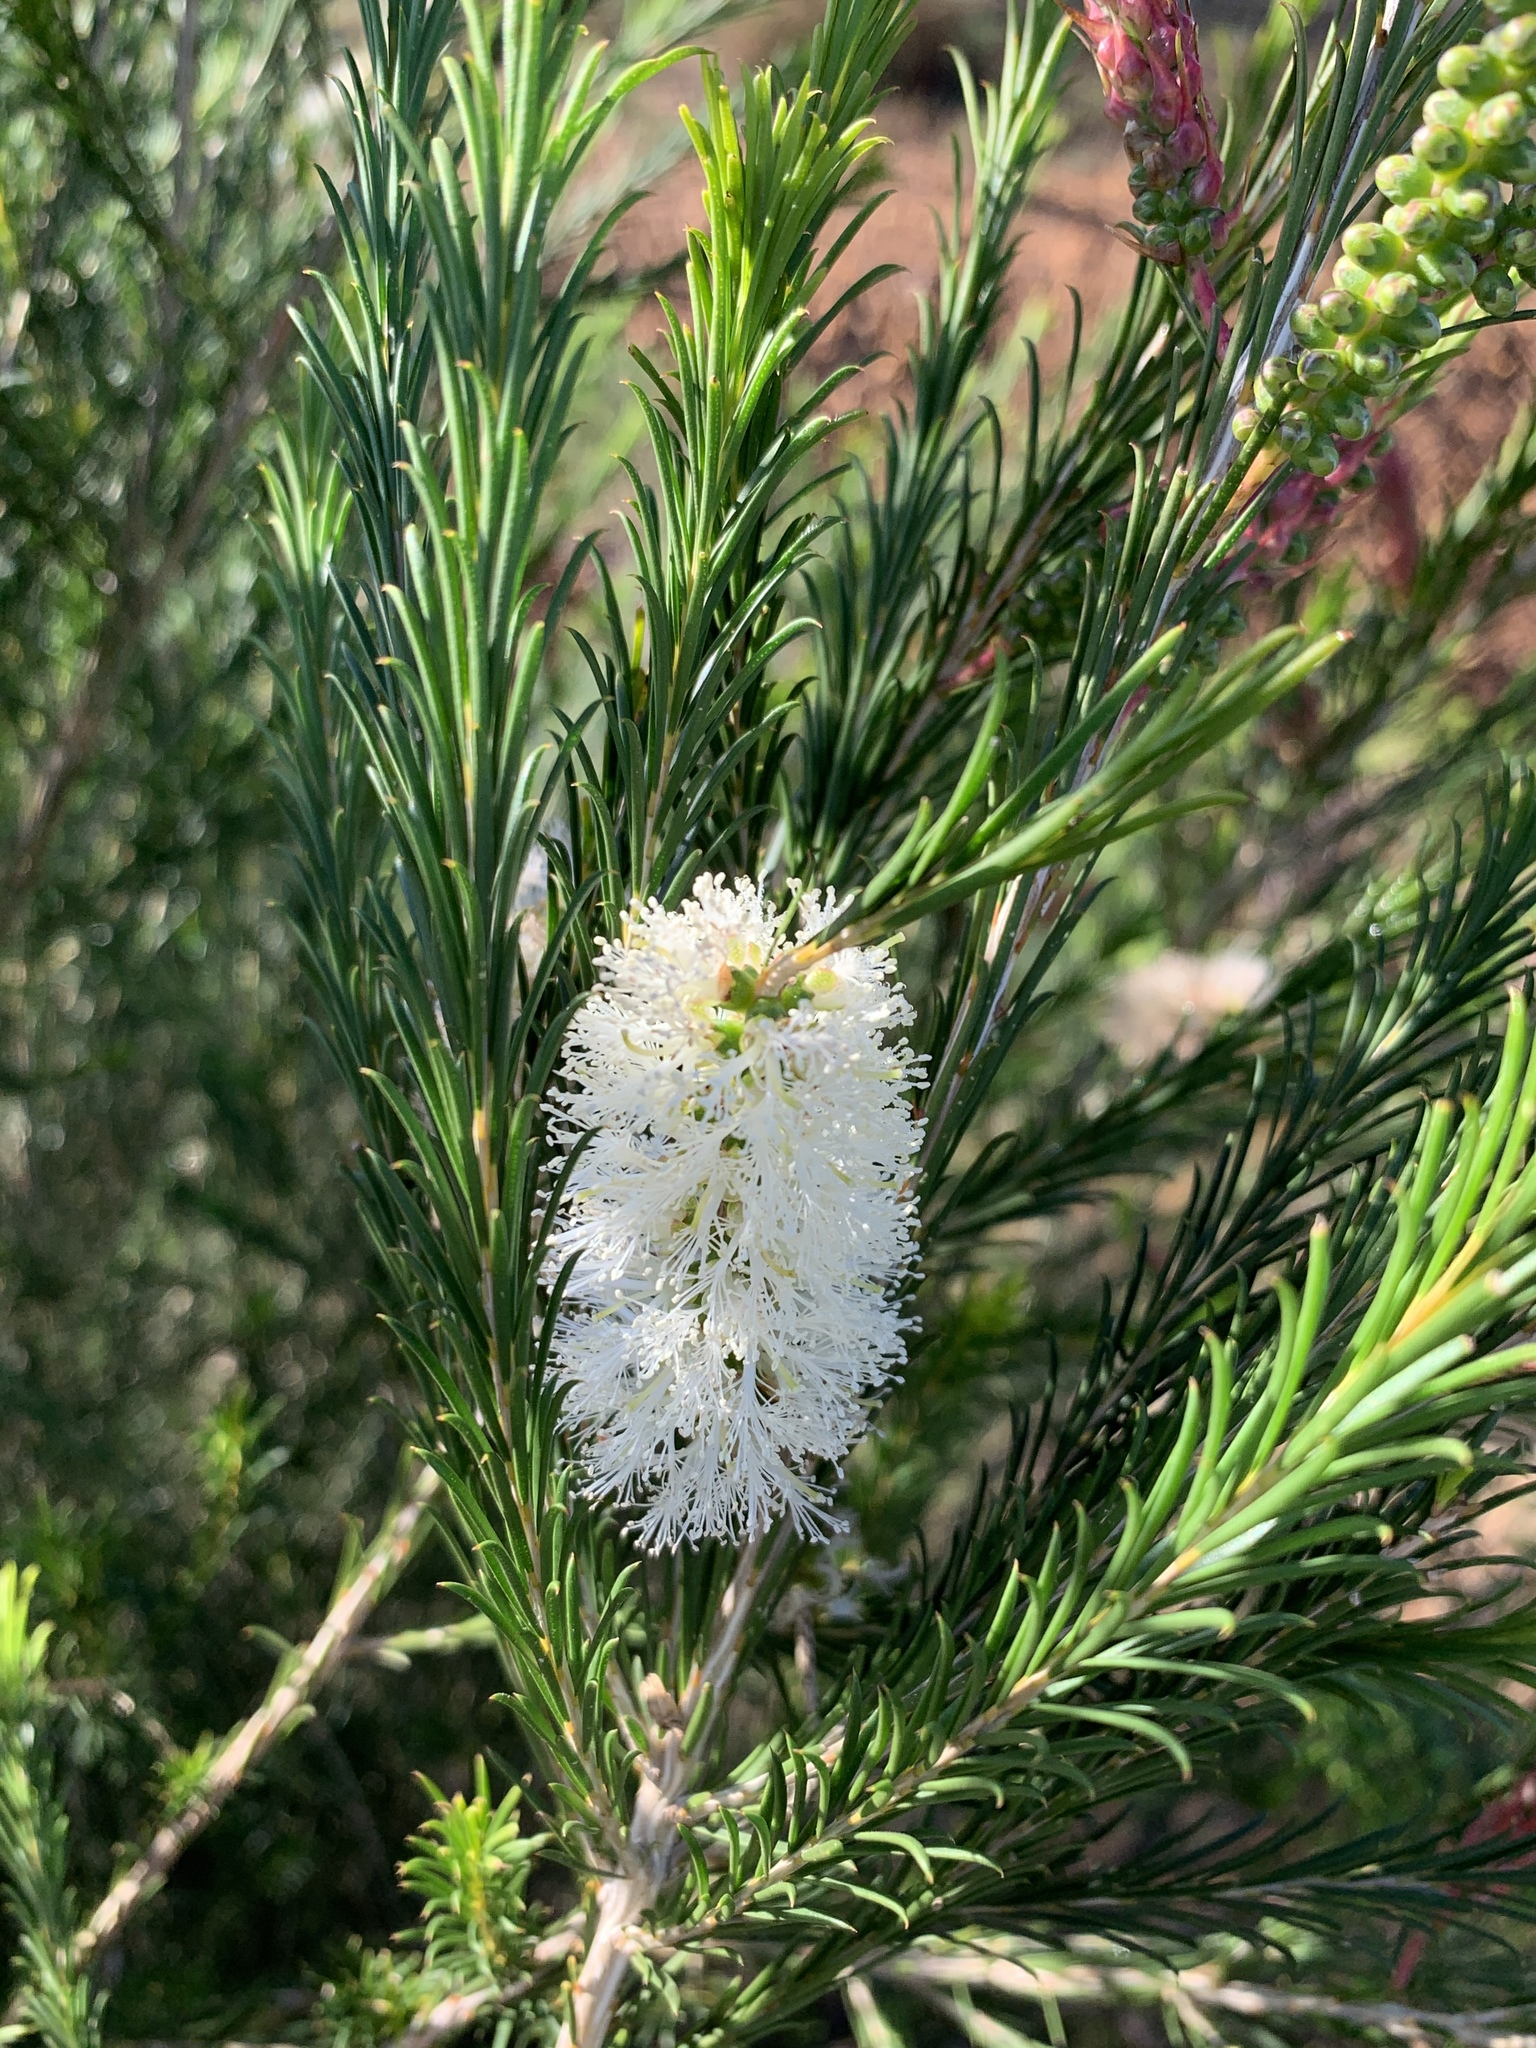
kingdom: Plantae
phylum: Tracheophyta
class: Magnoliopsida
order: Myrtales
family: Myrtaceae
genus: Melaleuca
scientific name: Melaleuca armillaris
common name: Bracelet honey myrtle
